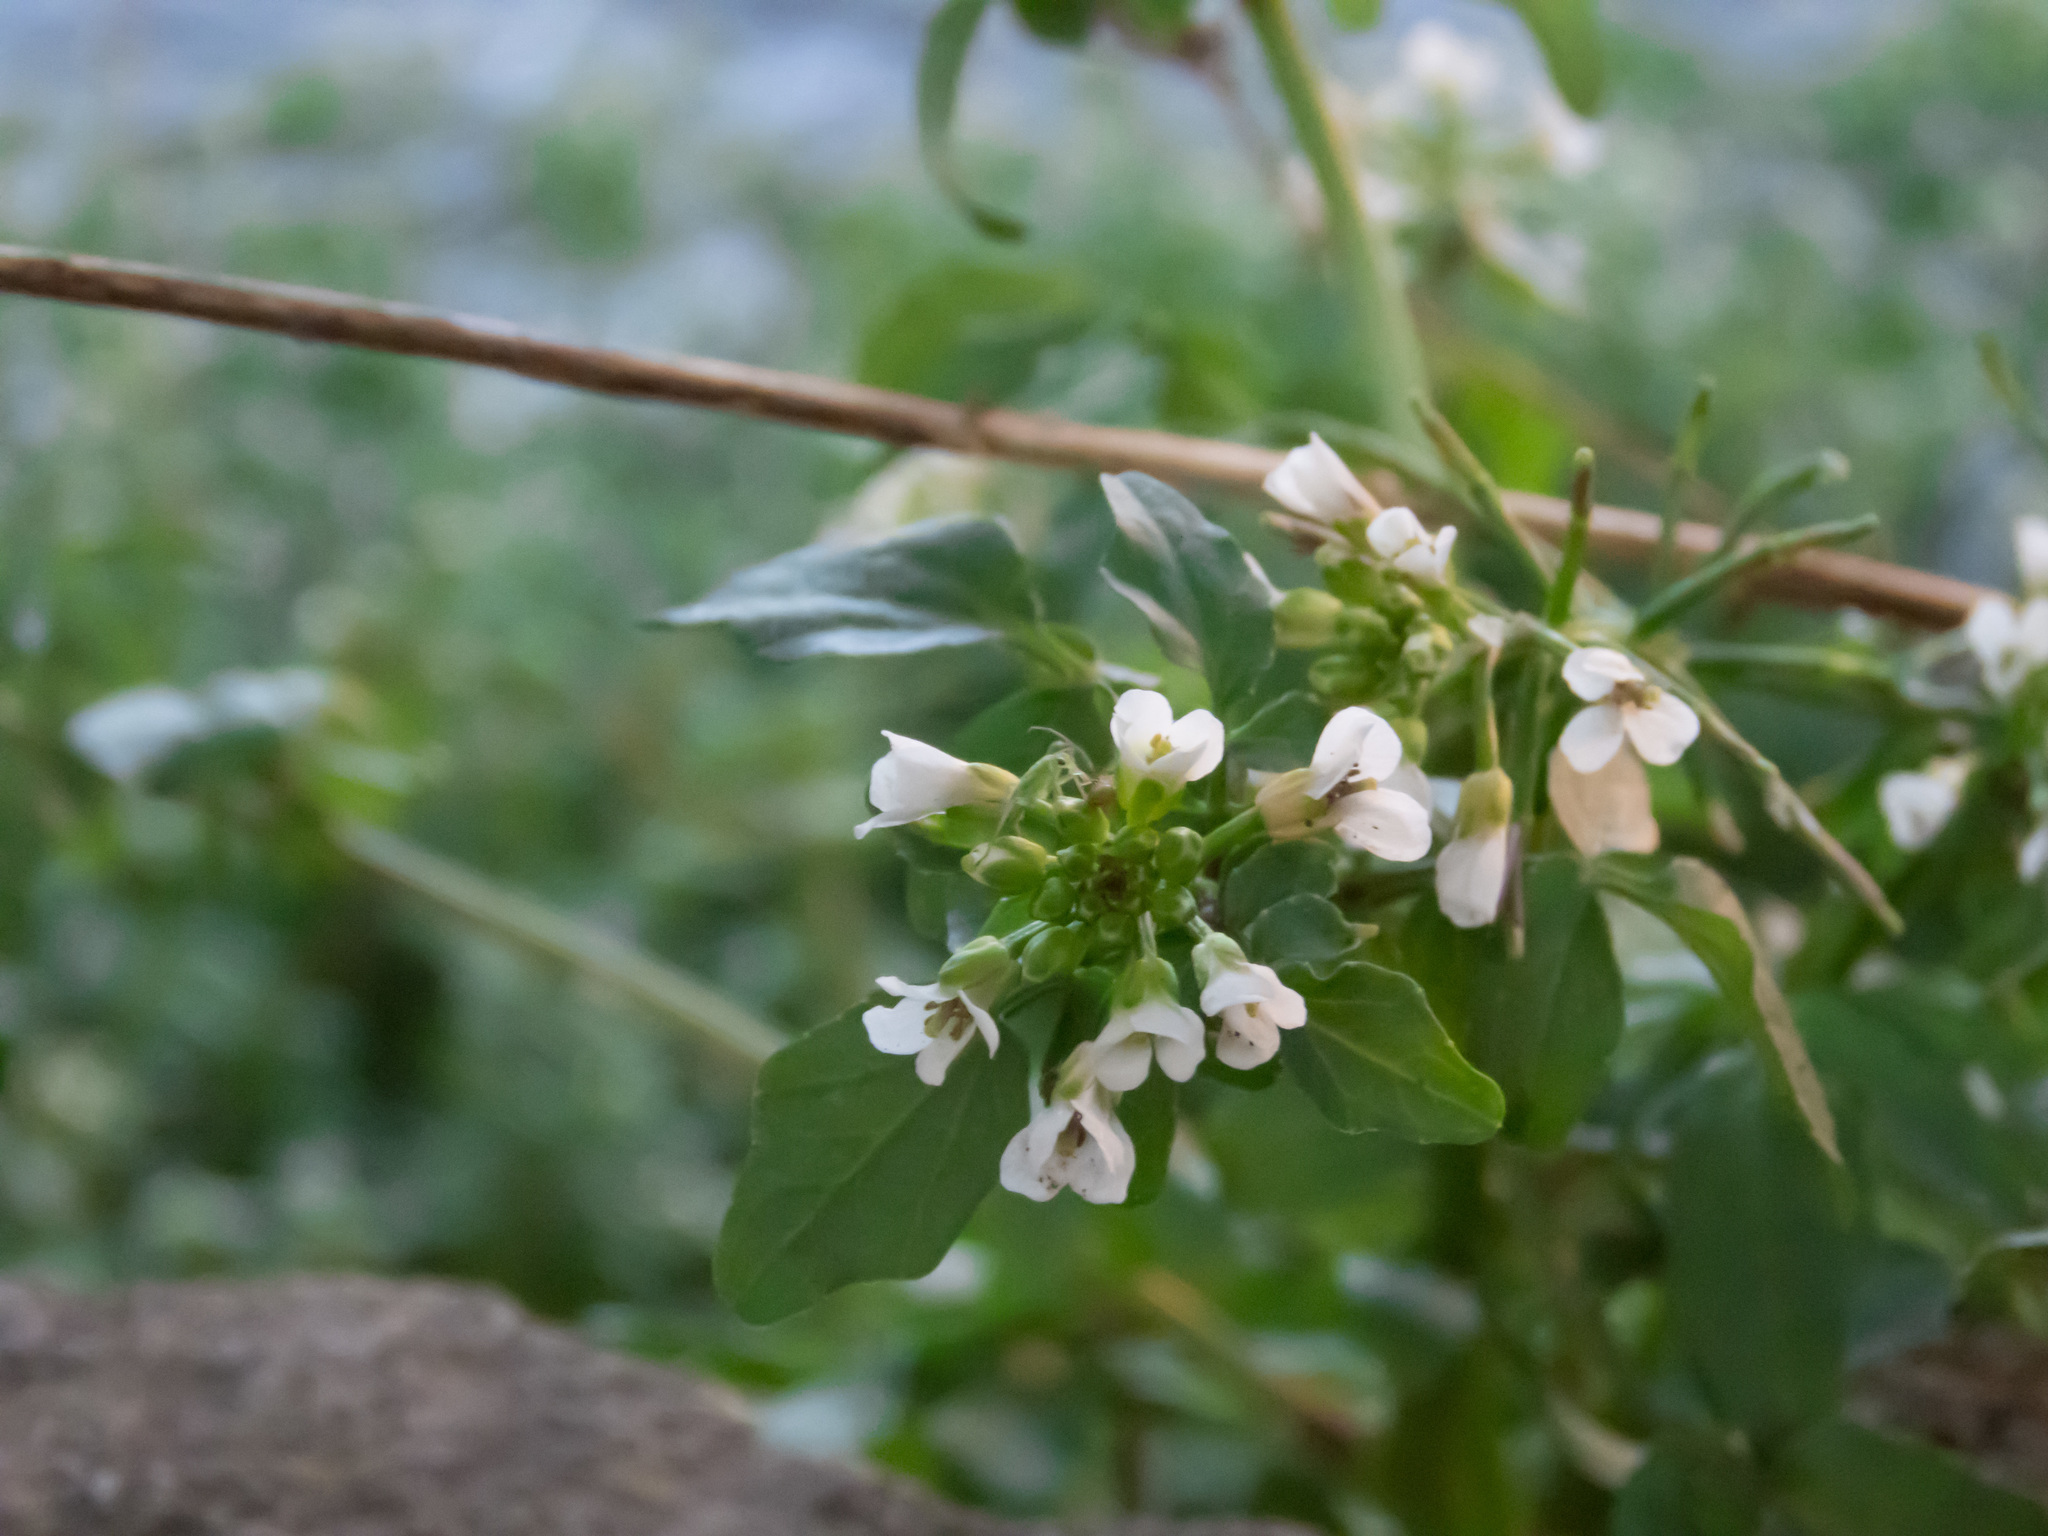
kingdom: Plantae
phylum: Tracheophyta
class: Magnoliopsida
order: Brassicales
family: Brassicaceae
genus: Nasturtium
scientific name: Nasturtium officinale
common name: Watercress
